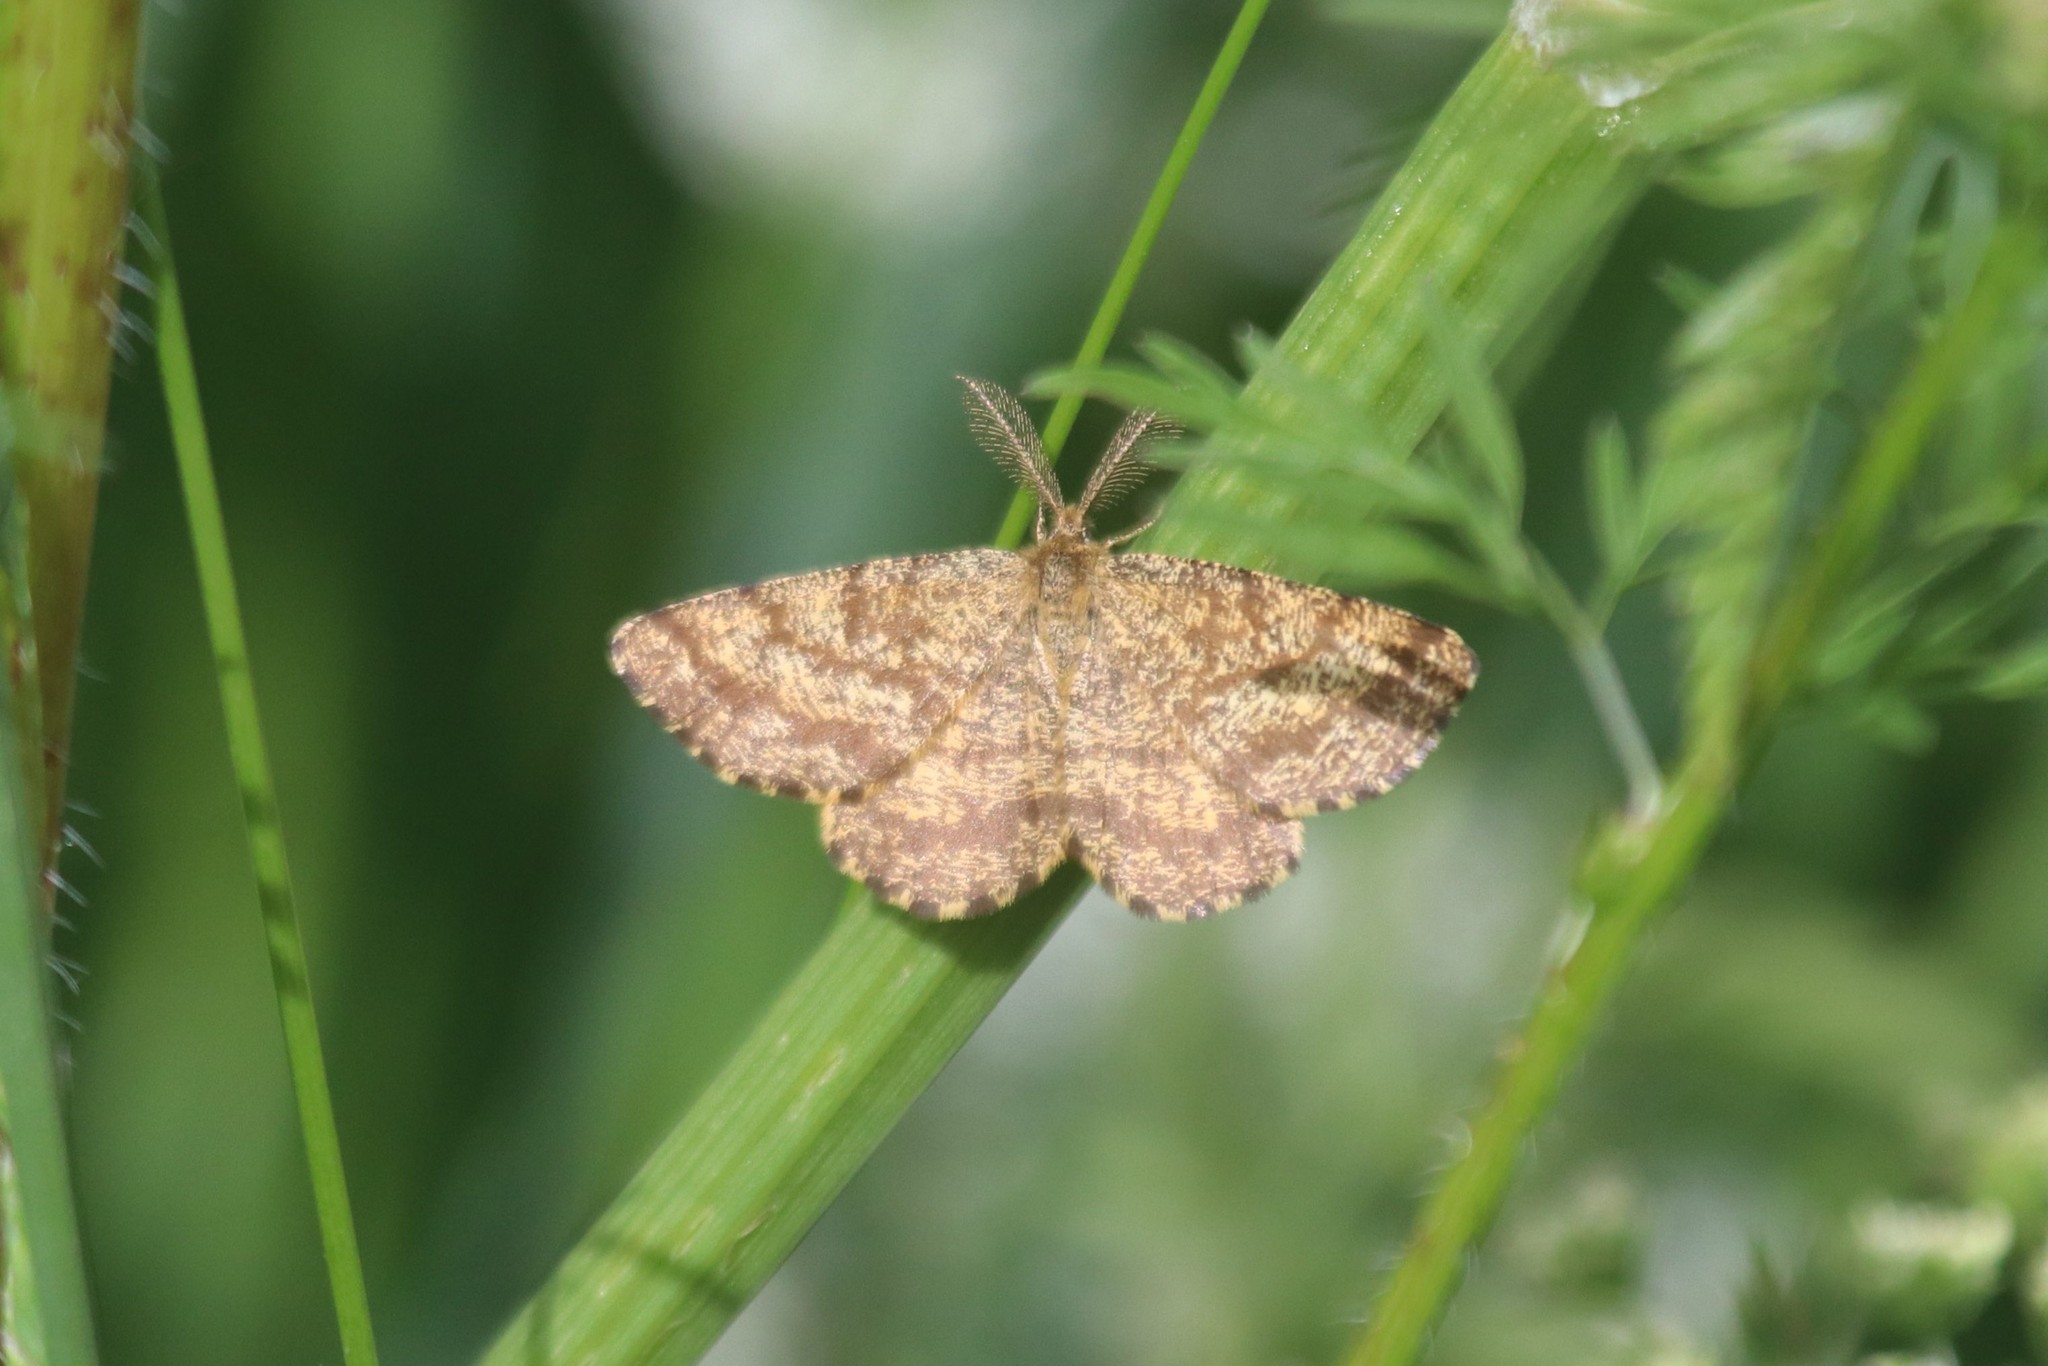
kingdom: Animalia
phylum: Arthropoda
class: Insecta
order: Lepidoptera
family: Geometridae
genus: Ematurga
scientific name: Ematurga atomaria
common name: Common heath
